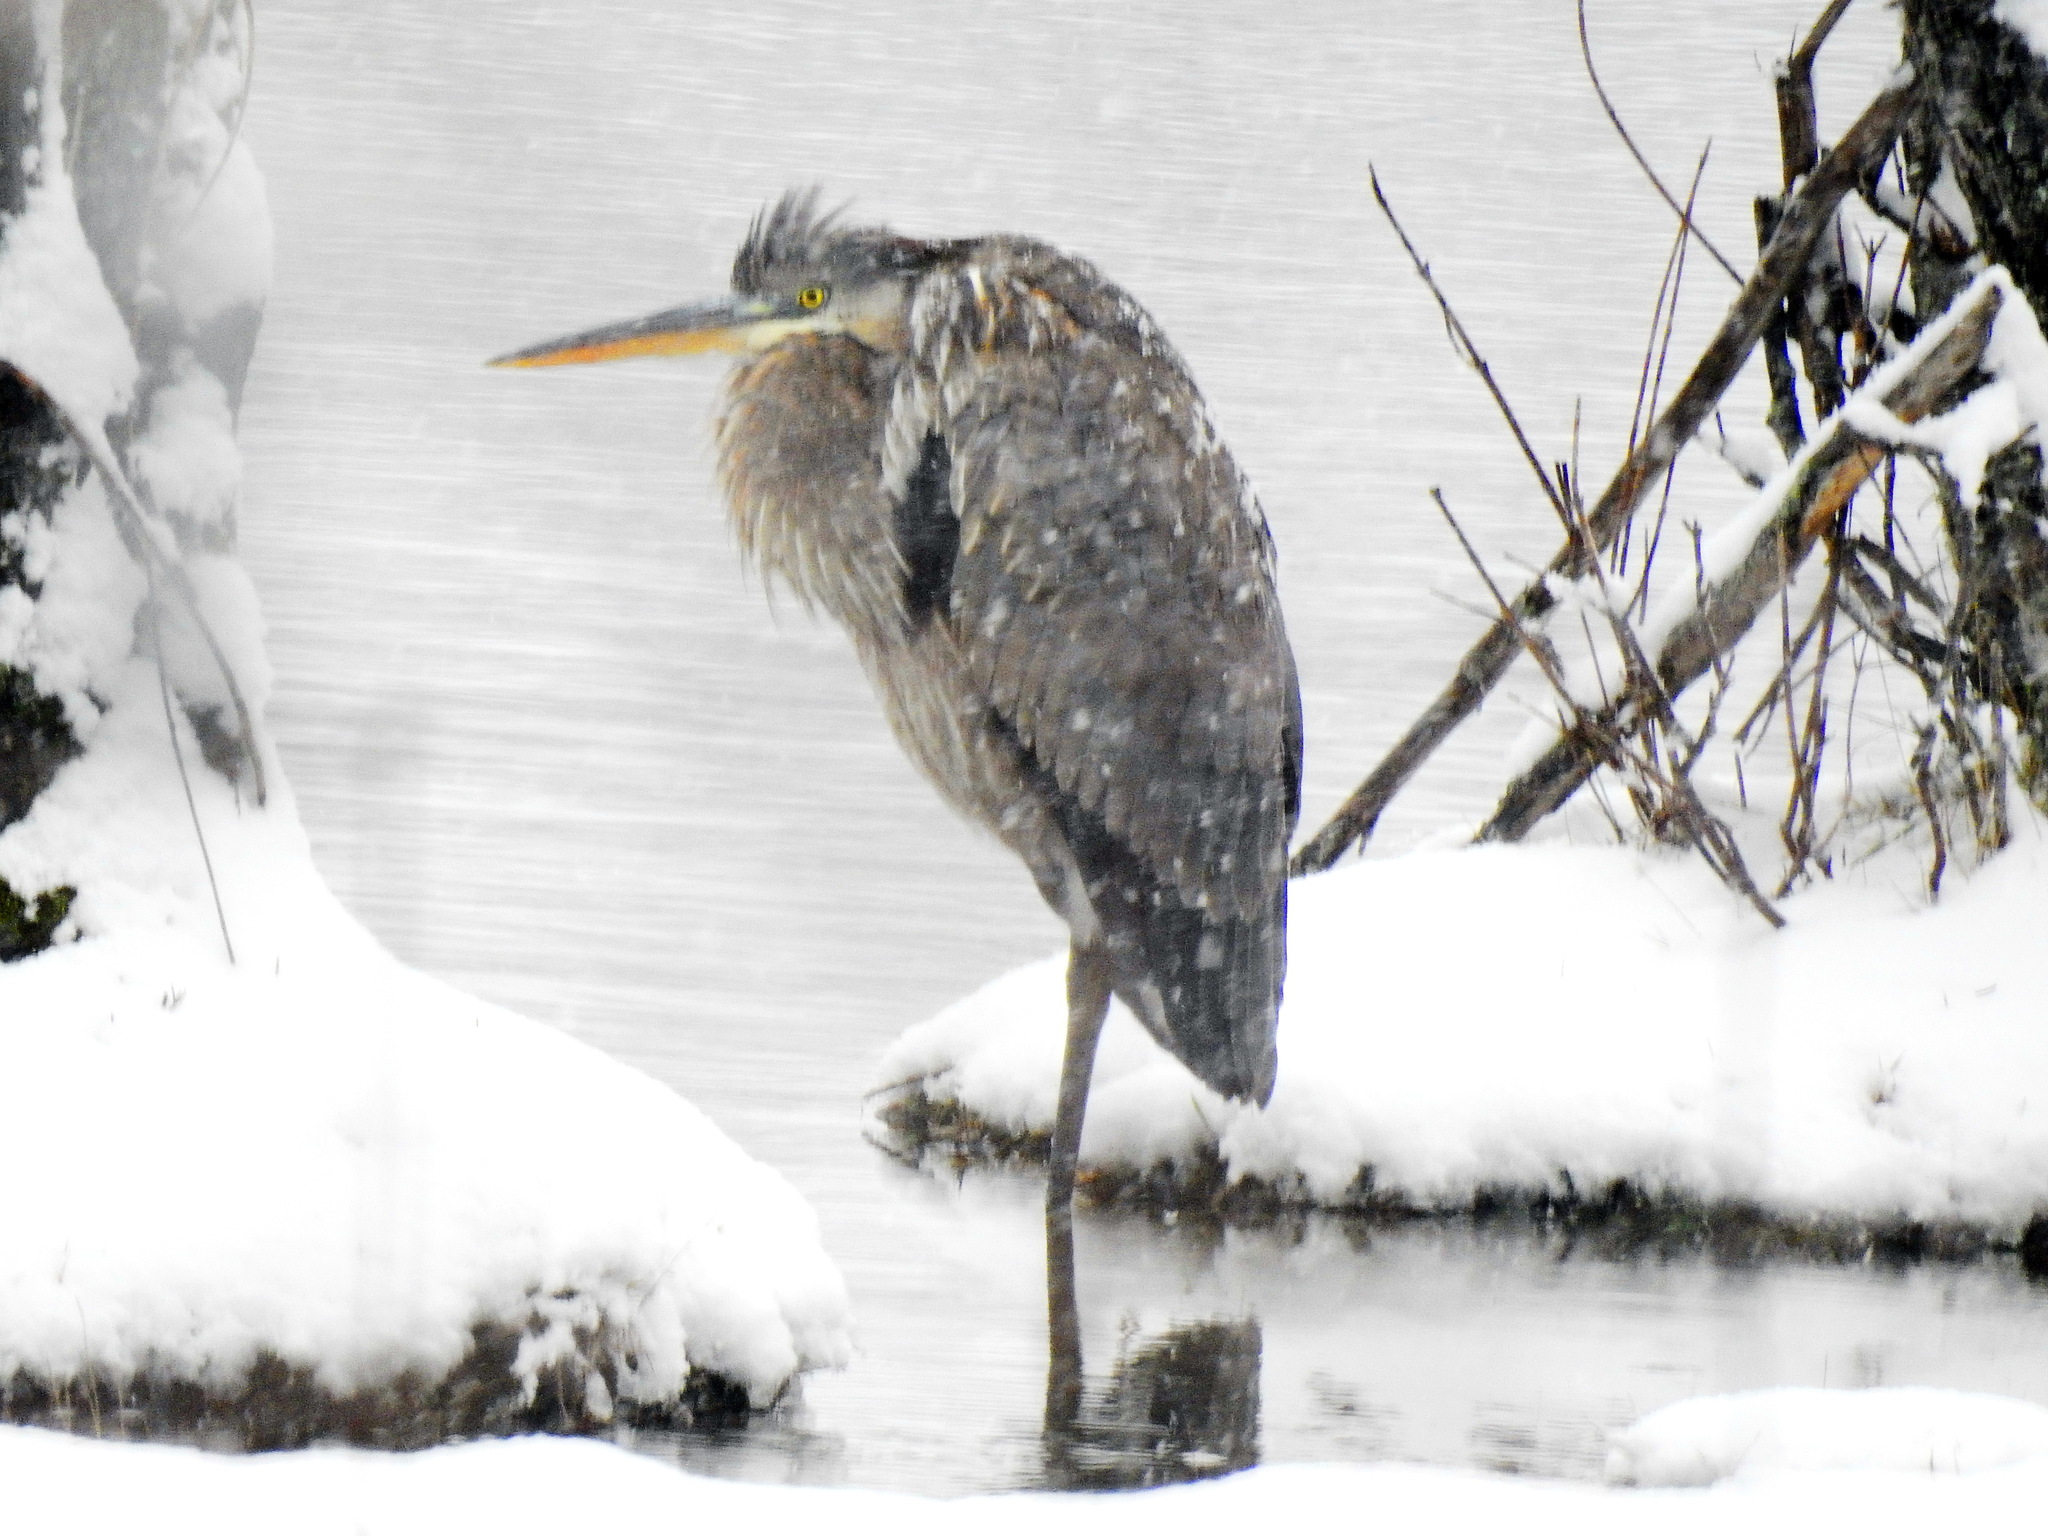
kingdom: Animalia
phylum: Chordata
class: Aves
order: Pelecaniformes
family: Ardeidae
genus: Ardea
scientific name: Ardea herodias
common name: Great blue heron
